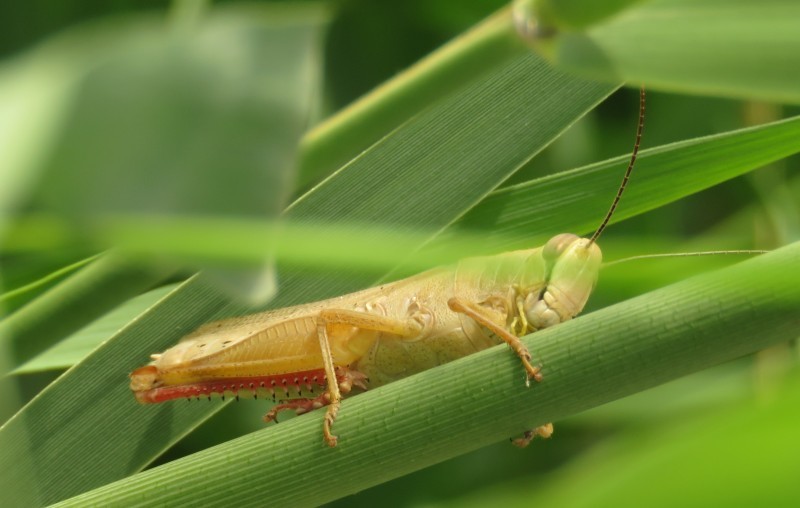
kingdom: Animalia
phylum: Arthropoda
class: Insecta
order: Orthoptera
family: Acrididae
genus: Heteracris
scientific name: Heteracris pterosticha
